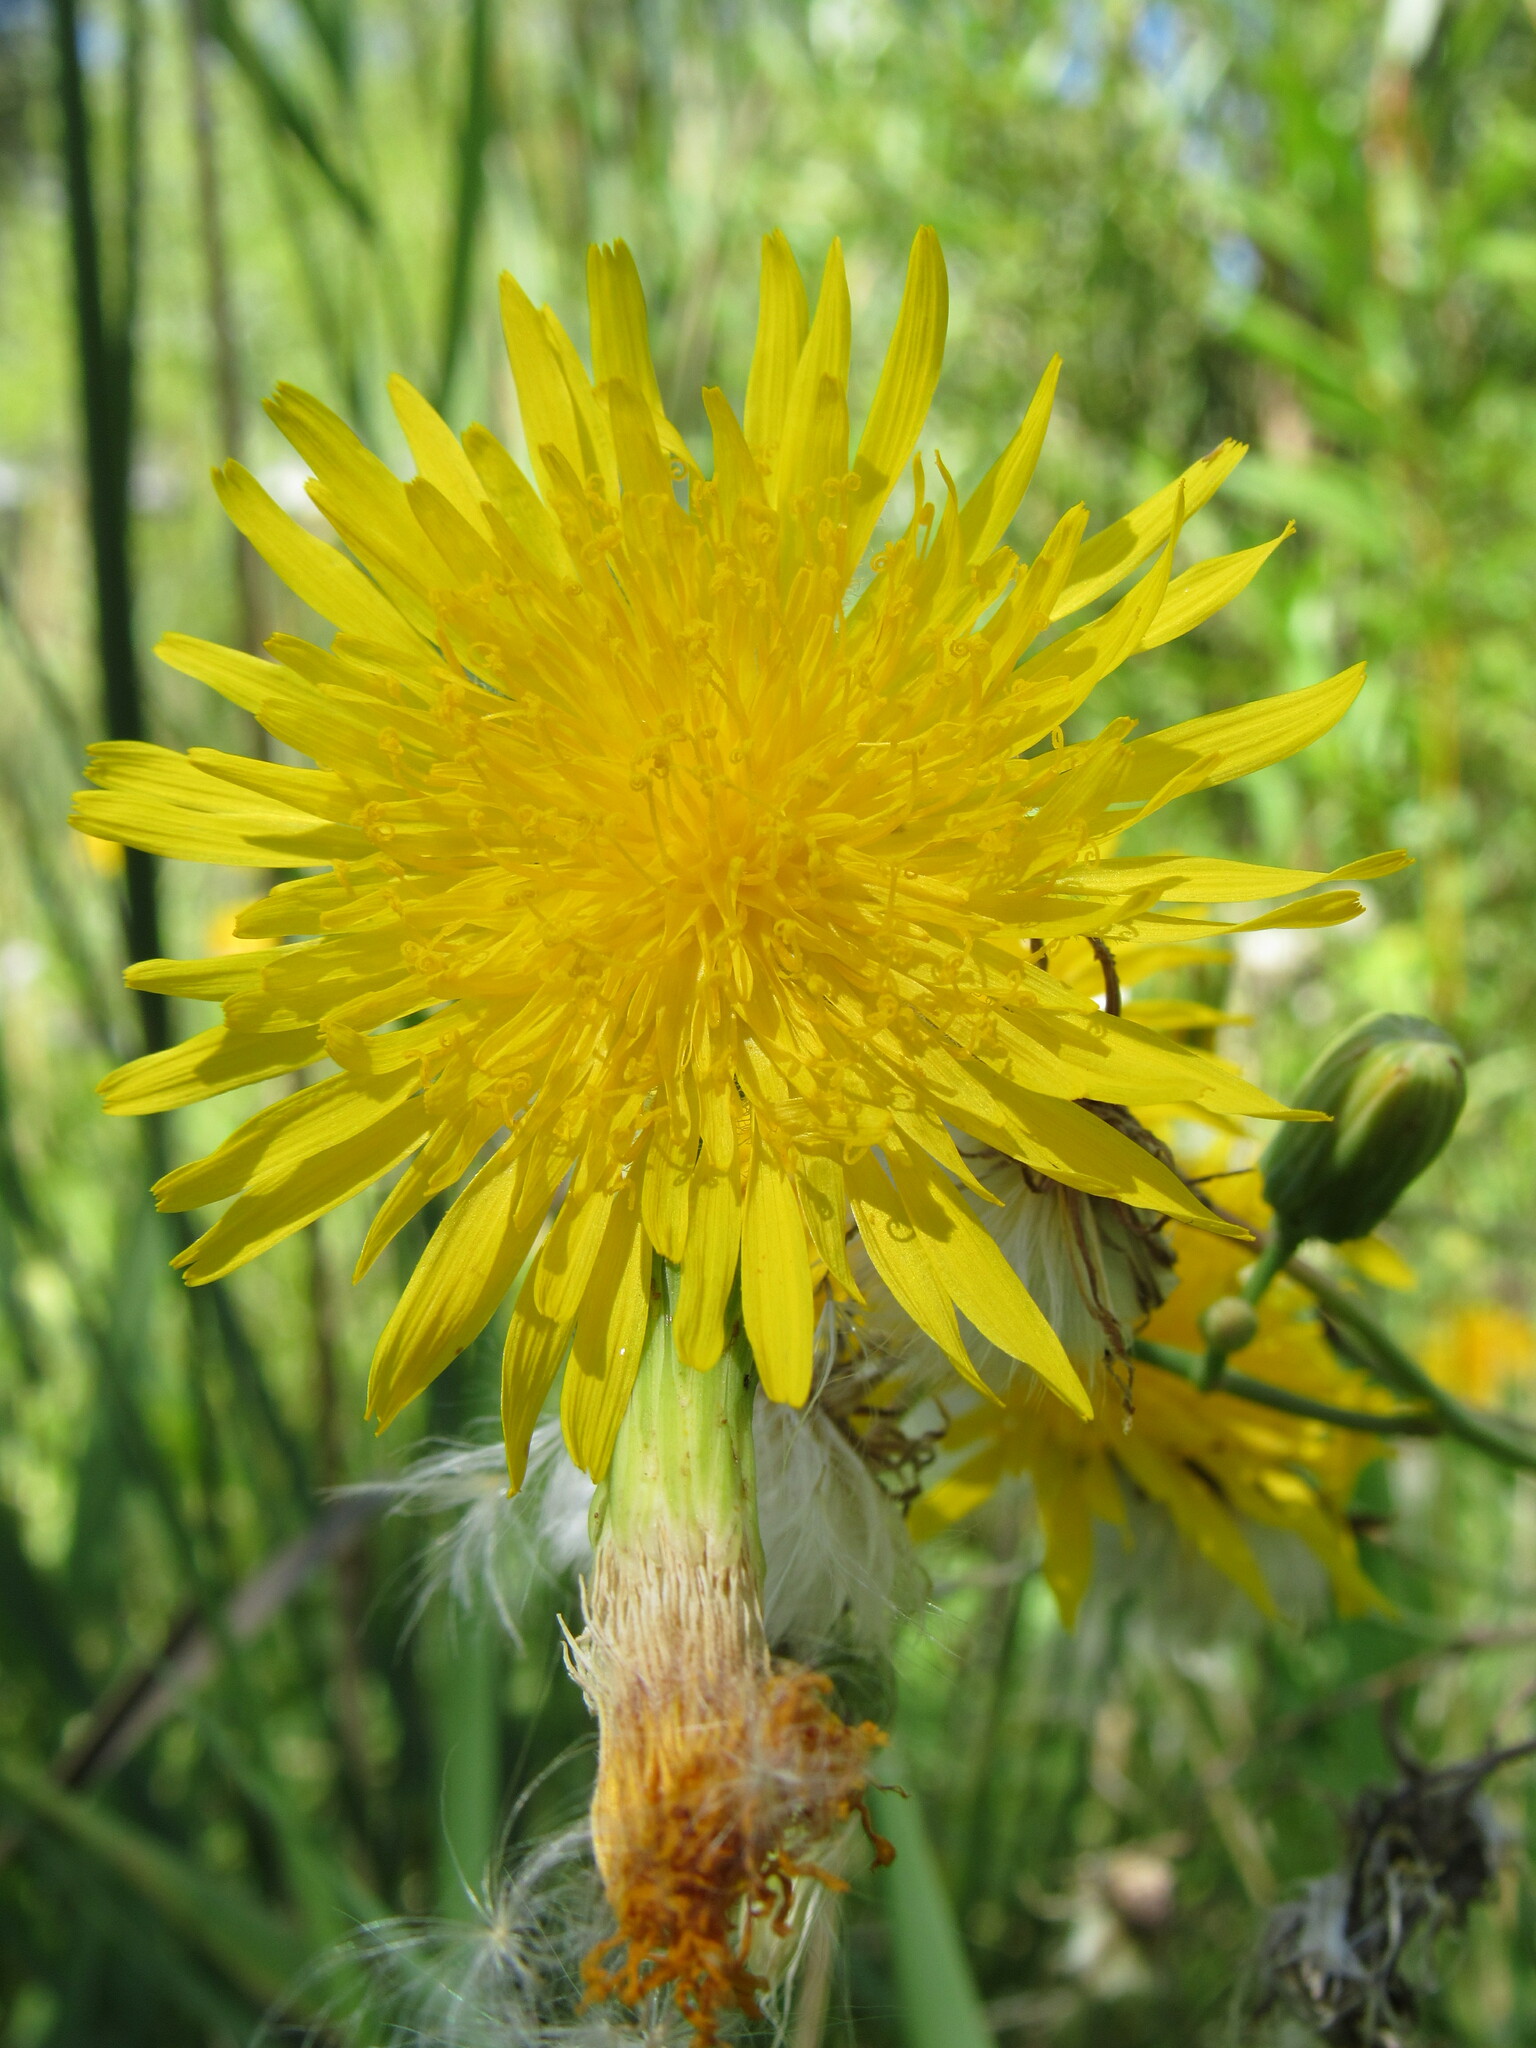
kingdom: Plantae
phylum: Tracheophyta
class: Magnoliopsida
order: Asterales
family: Asteraceae
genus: Sonchus
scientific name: Sonchus arvensis
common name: Perennial sow-thistle
